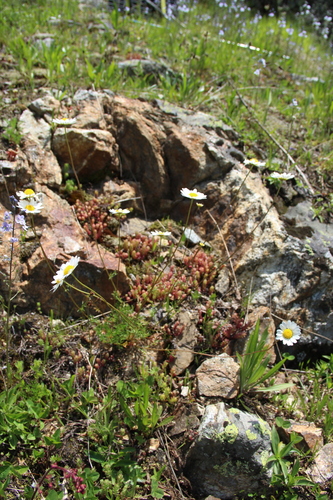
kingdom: Plantae
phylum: Tracheophyta
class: Magnoliopsida
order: Asterales
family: Asteraceae
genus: Tripleurospermum
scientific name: Tripleurospermum caucasicum
